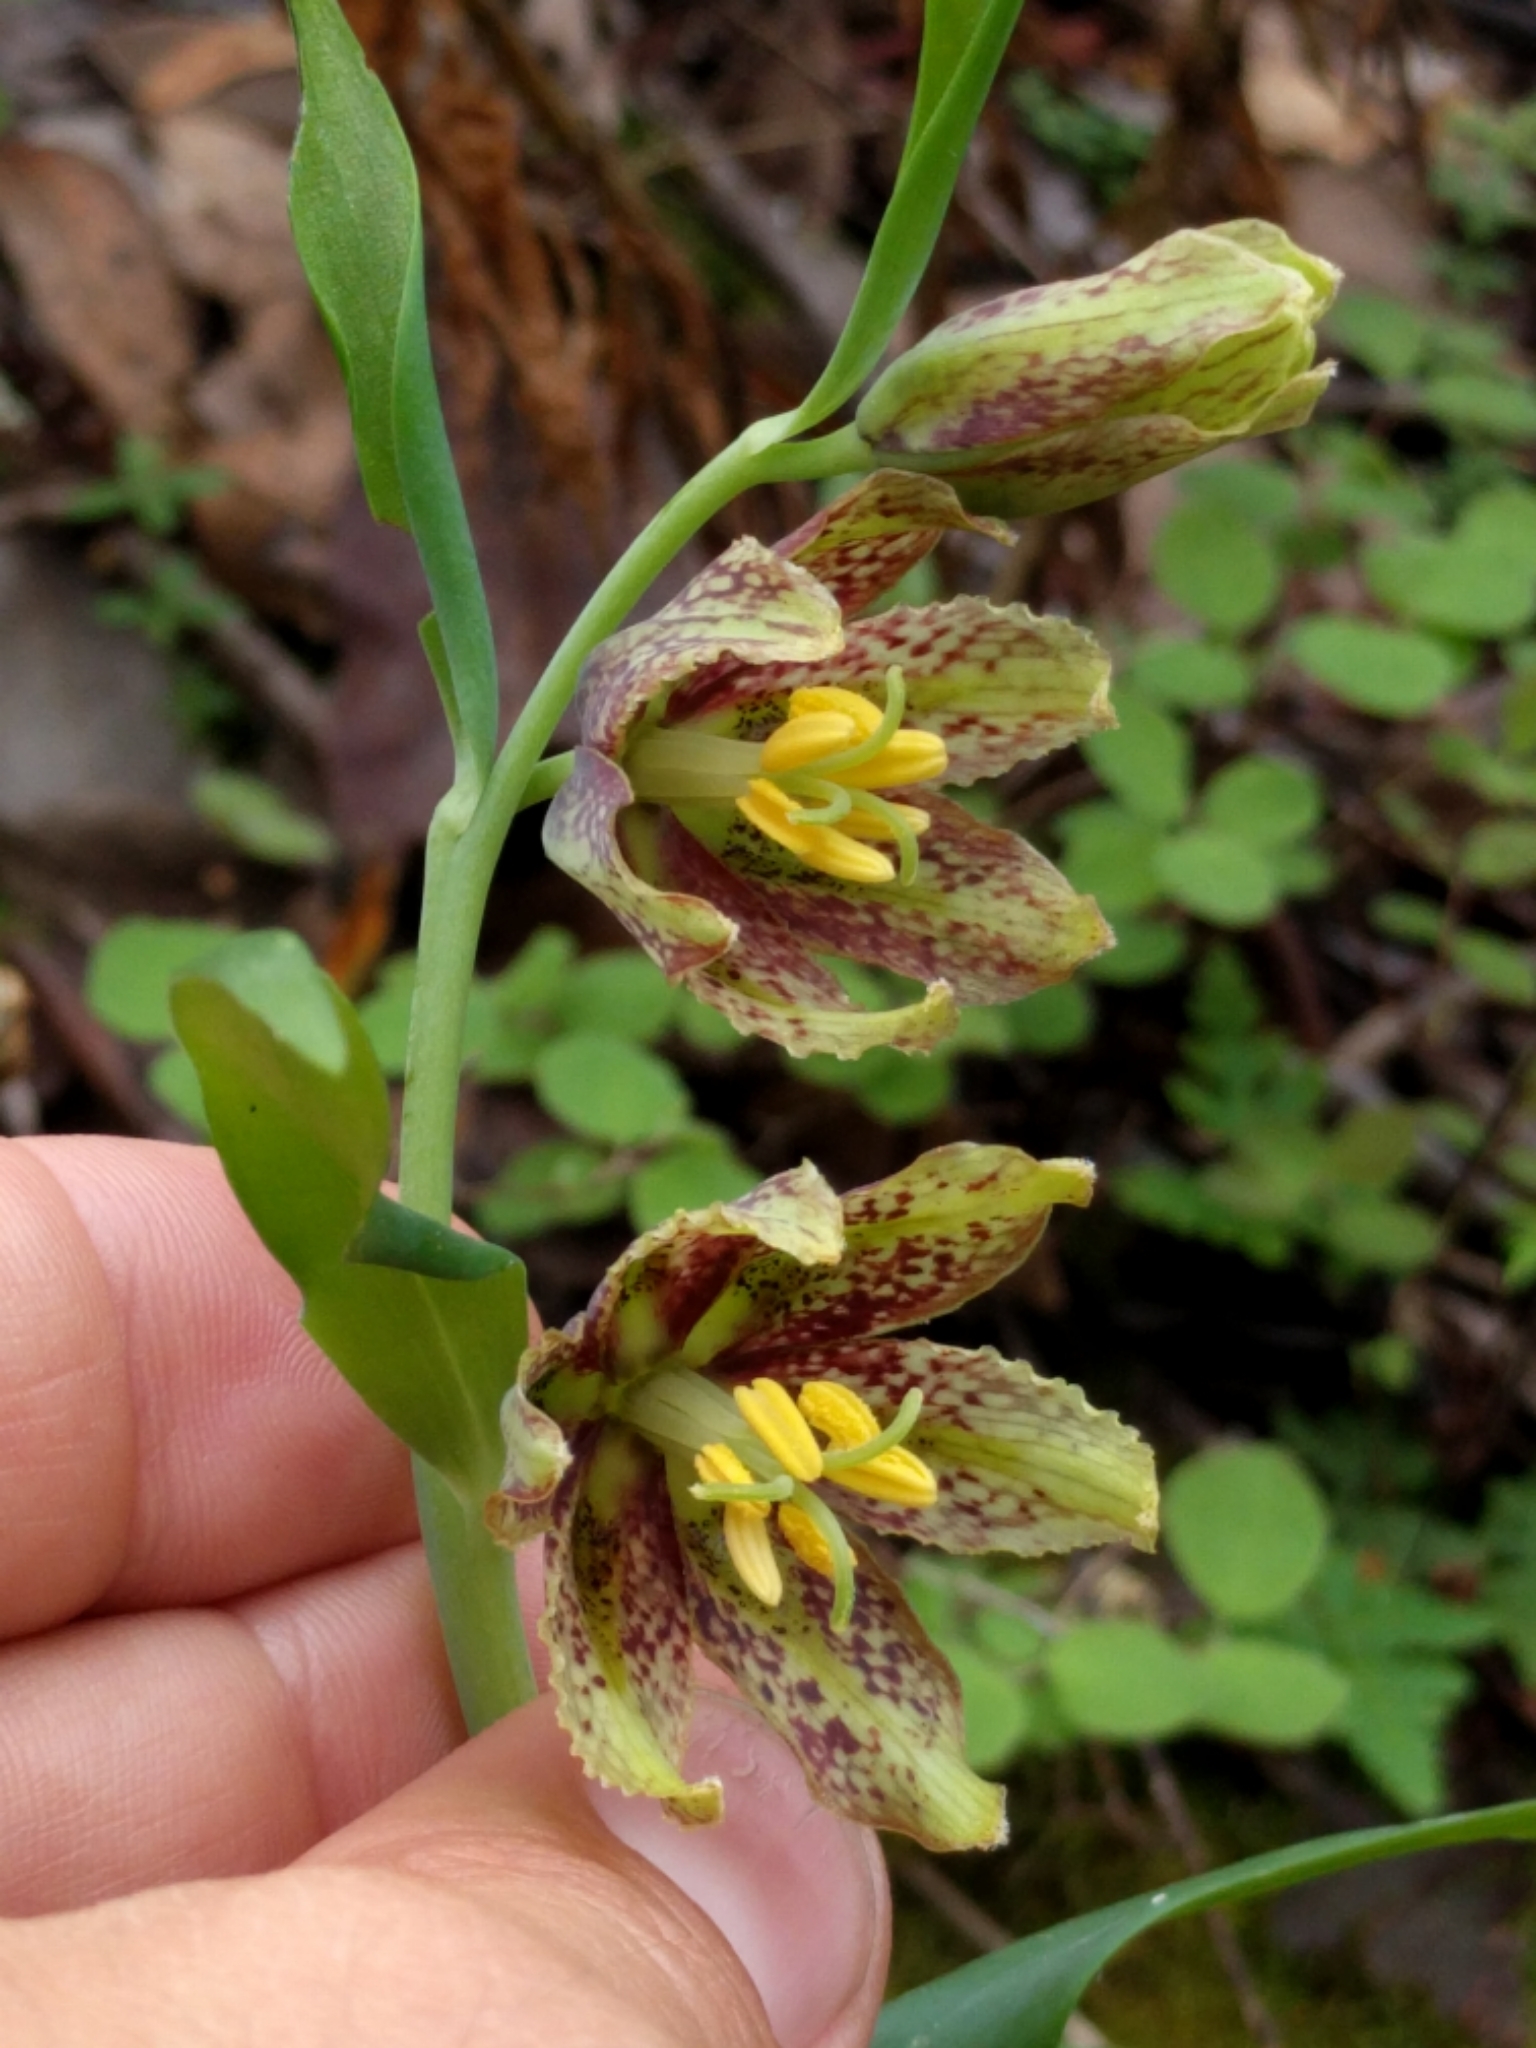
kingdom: Plantae
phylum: Tracheophyta
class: Liliopsida
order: Liliales
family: Liliaceae
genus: Fritillaria
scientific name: Fritillaria affinis
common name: Ojai fritillary
